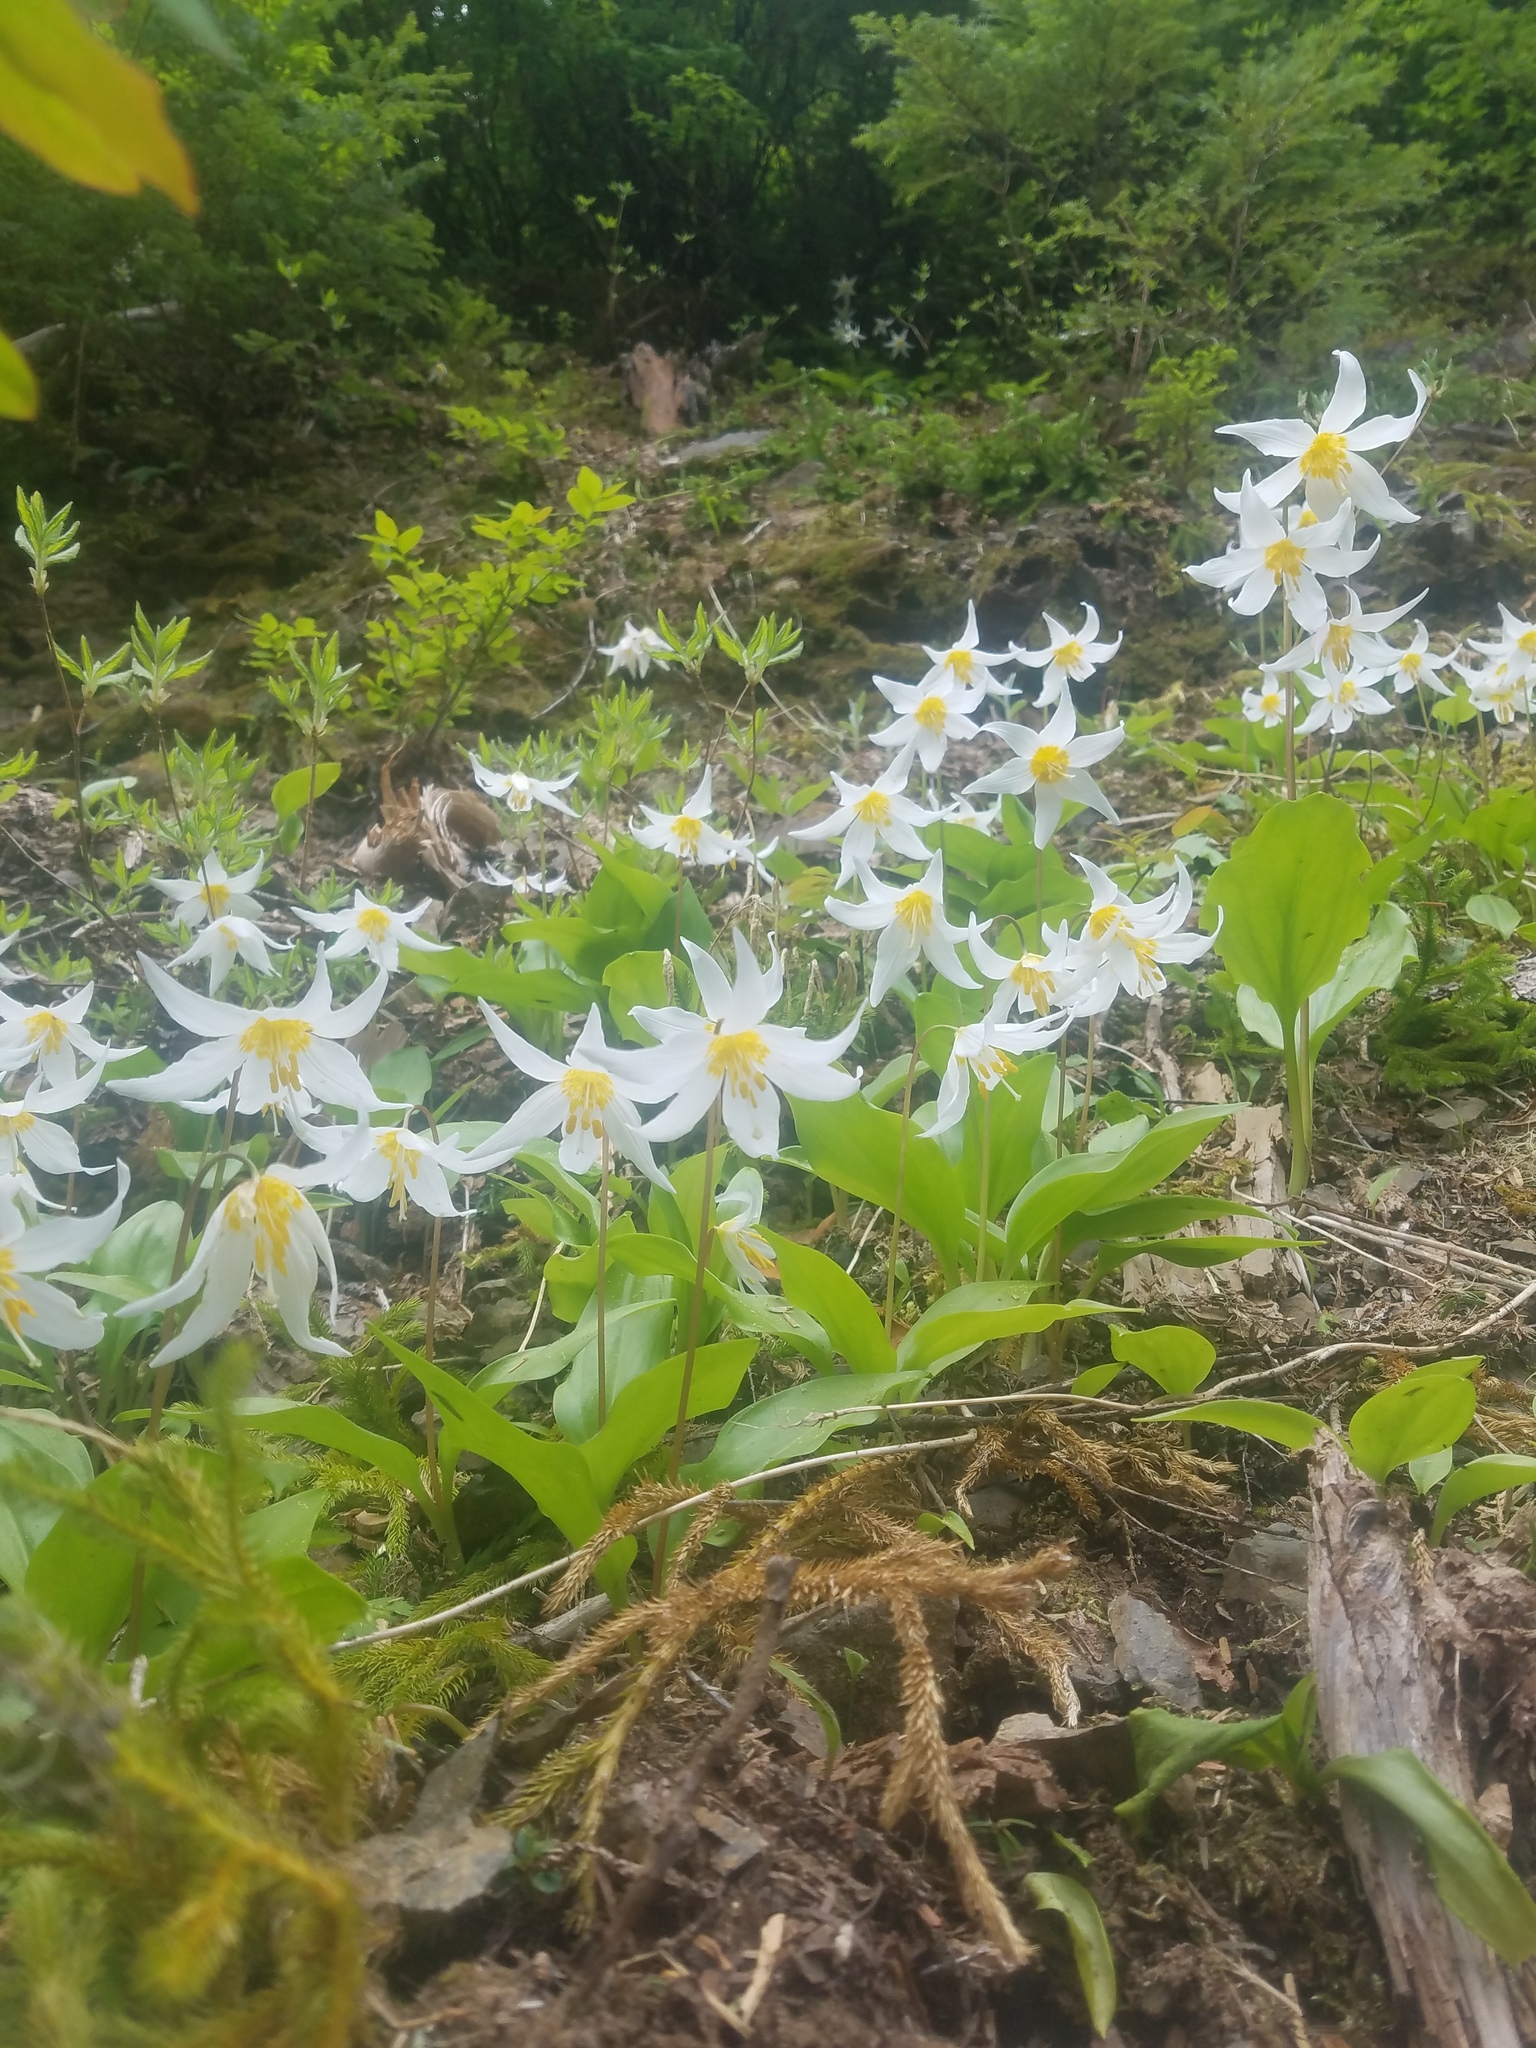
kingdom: Plantae
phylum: Tracheophyta
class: Liliopsida
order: Liliales
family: Liliaceae
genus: Erythronium
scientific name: Erythronium montanum
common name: Avalanche lily
